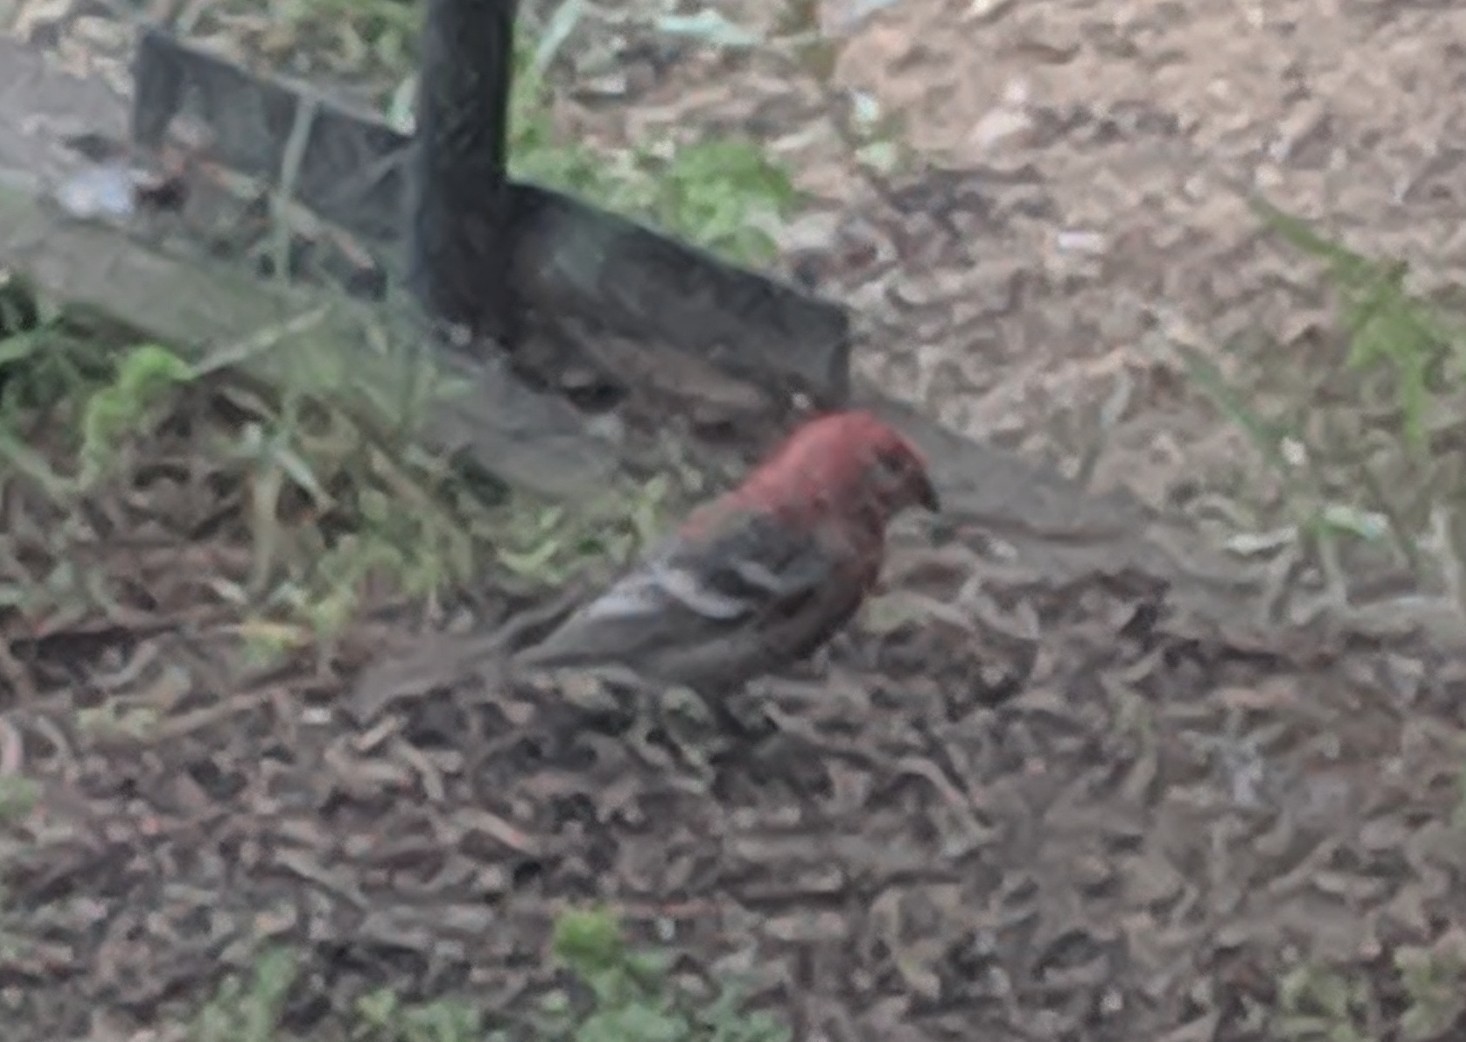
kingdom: Animalia
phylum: Chordata
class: Aves
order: Passeriformes
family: Fringillidae
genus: Pinicola
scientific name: Pinicola enucleator
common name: Pine grosbeak
